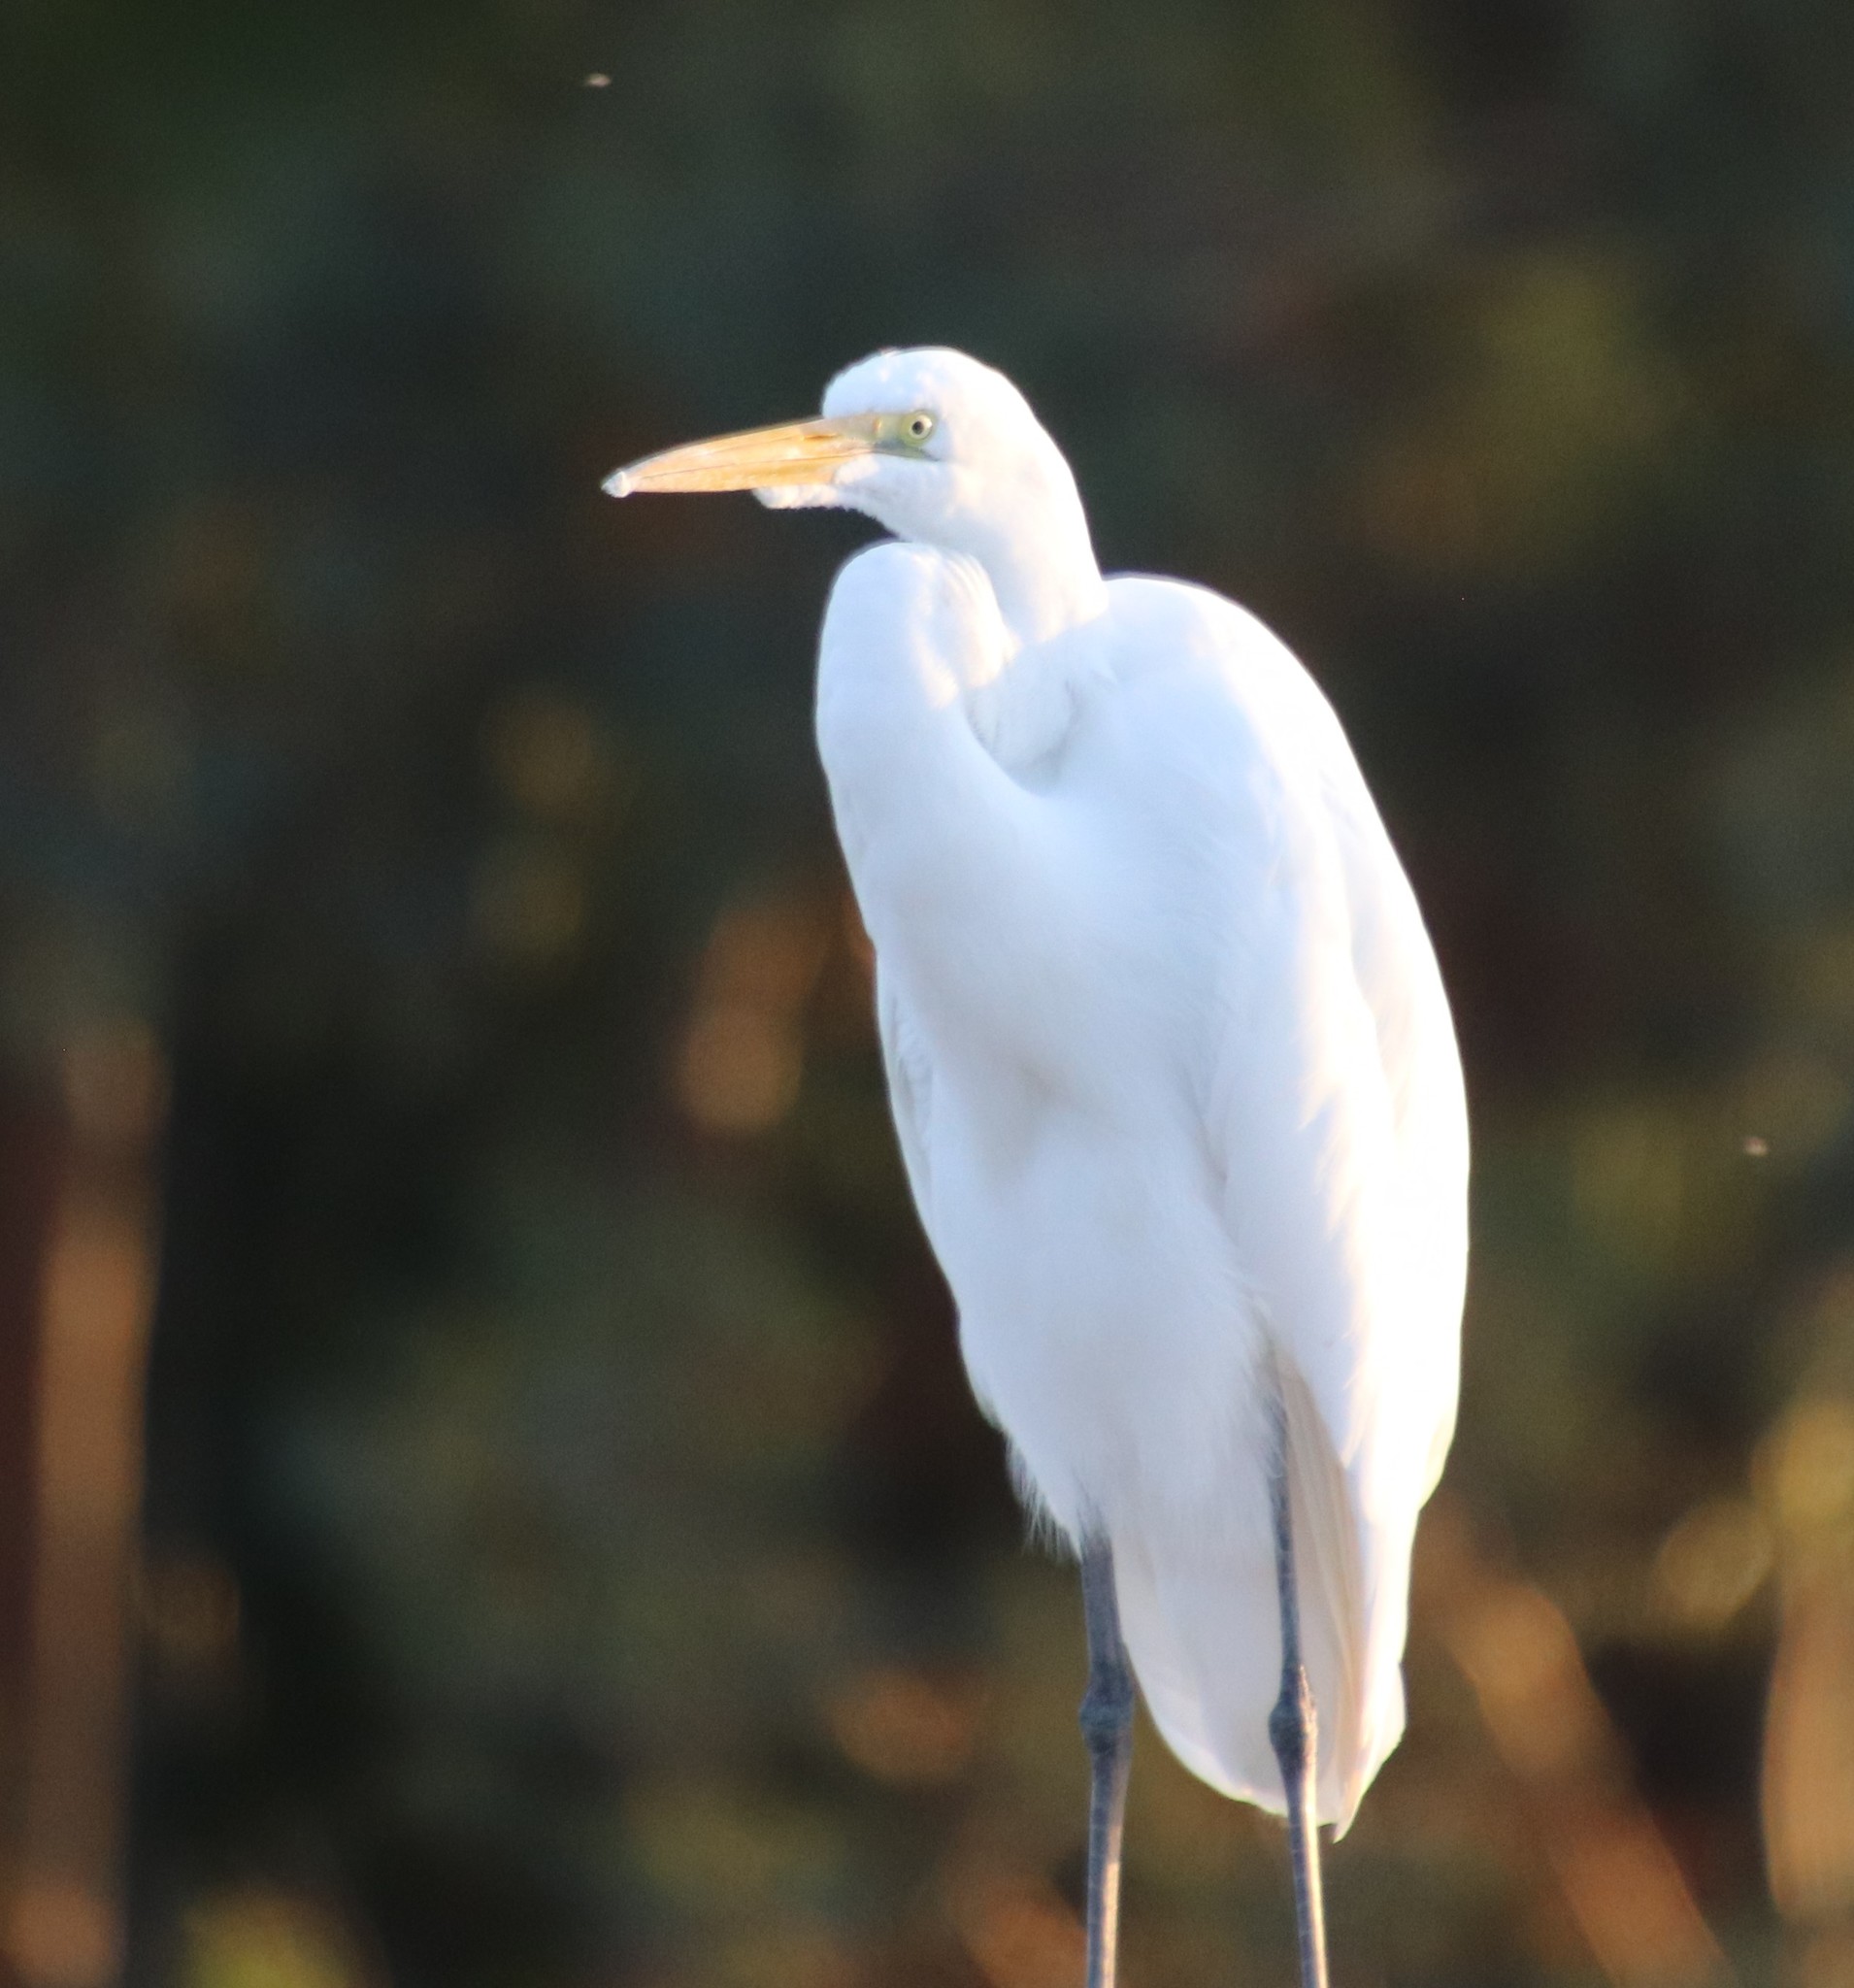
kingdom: Animalia
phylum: Chordata
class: Aves
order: Pelecaniformes
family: Ardeidae
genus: Ardea
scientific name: Ardea alba
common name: Great egret
